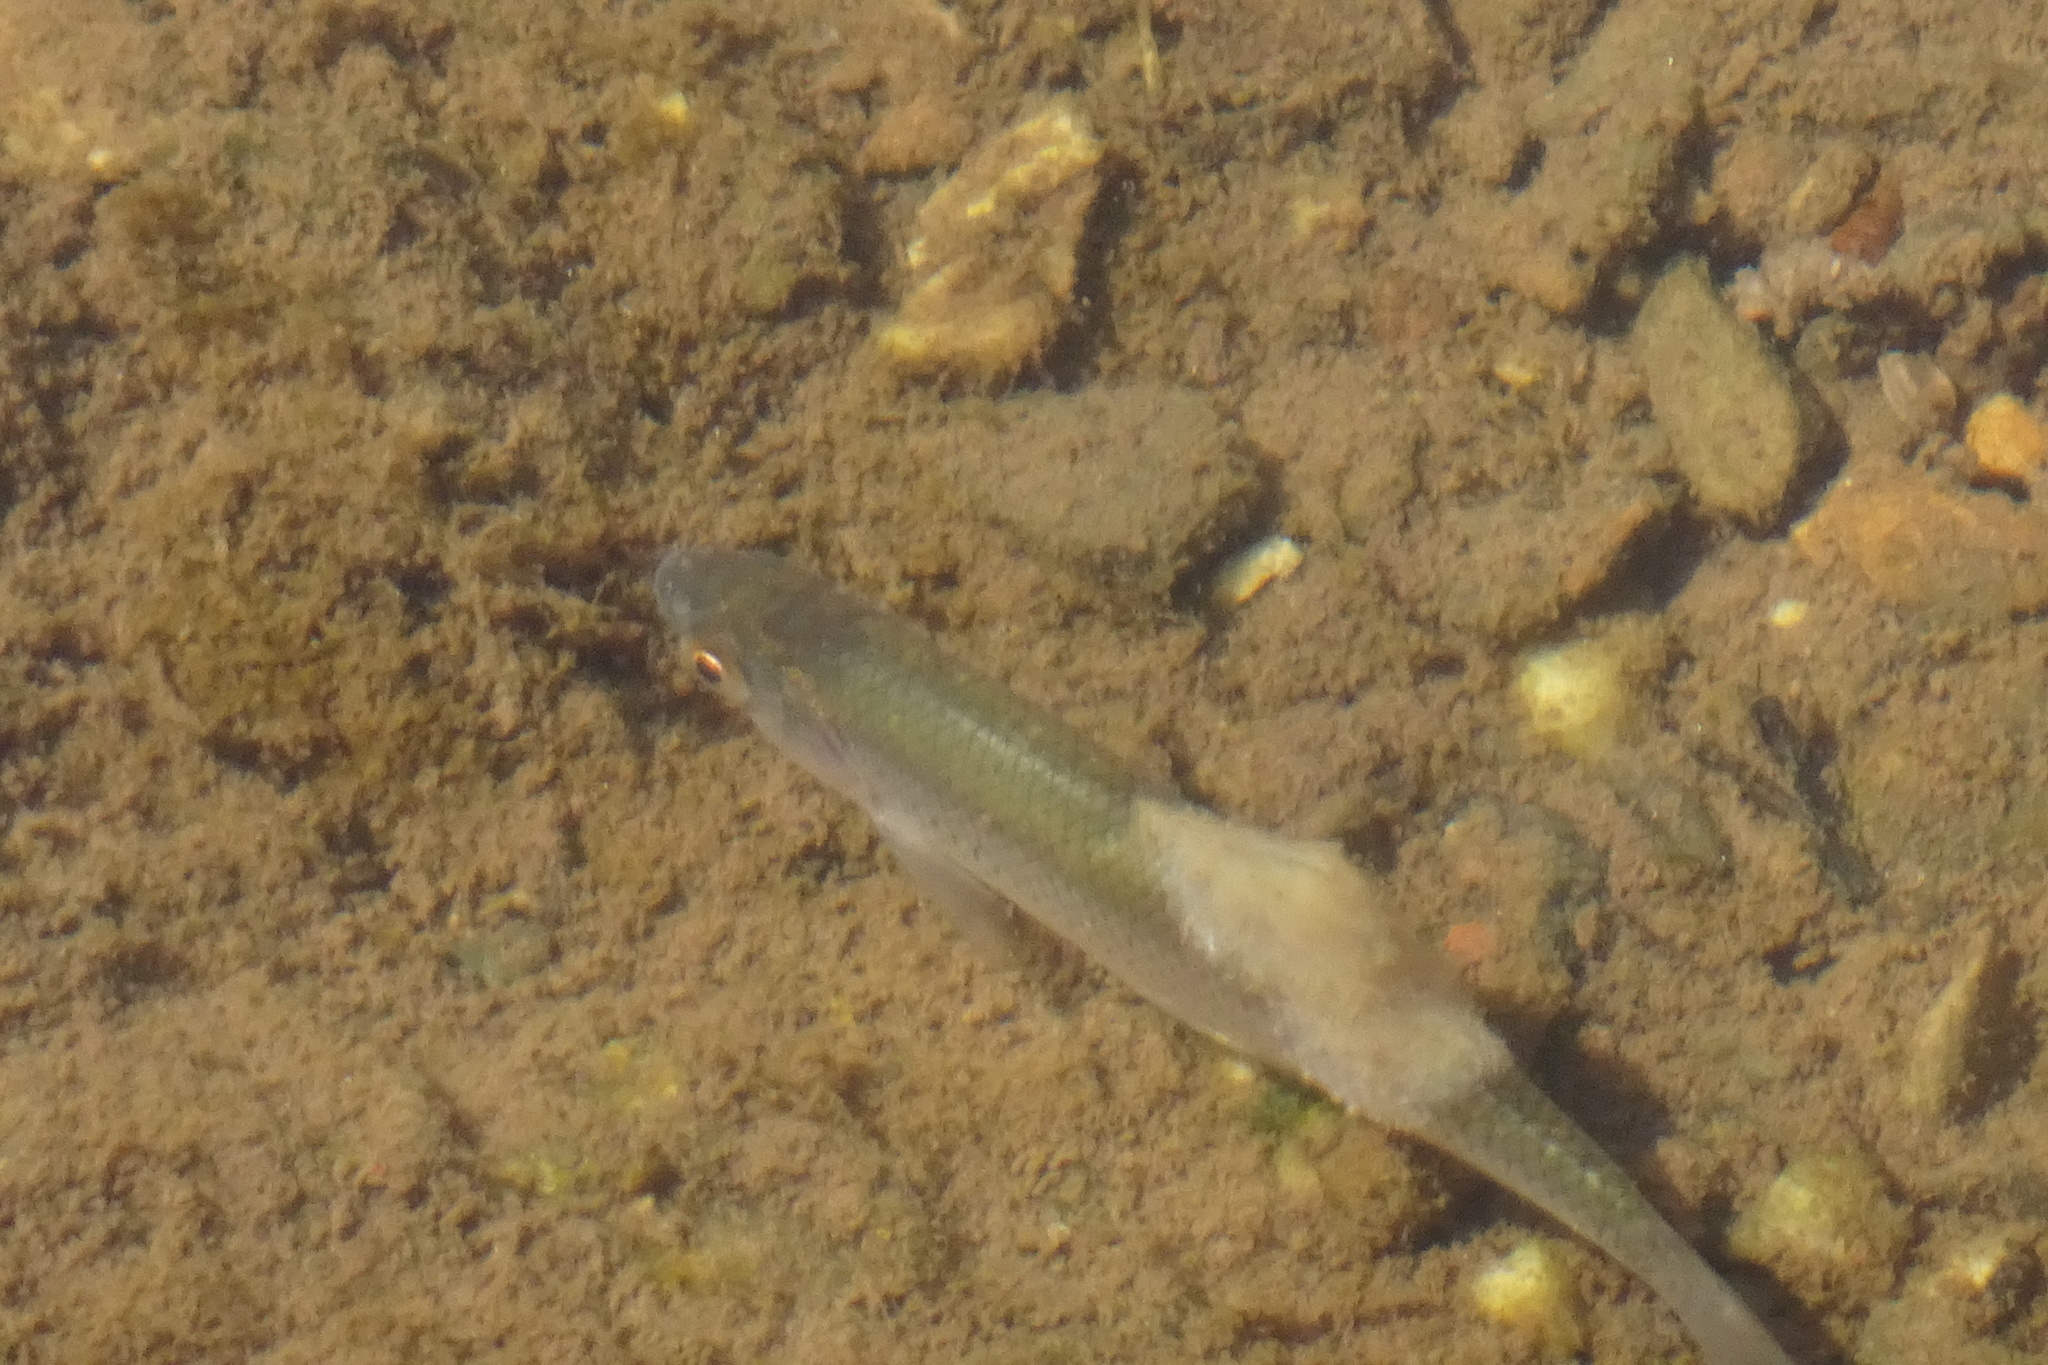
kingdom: Animalia
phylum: Chordata
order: Cypriniformes
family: Cyprinidae
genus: Rutilus
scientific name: Rutilus rutilus
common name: Roach
